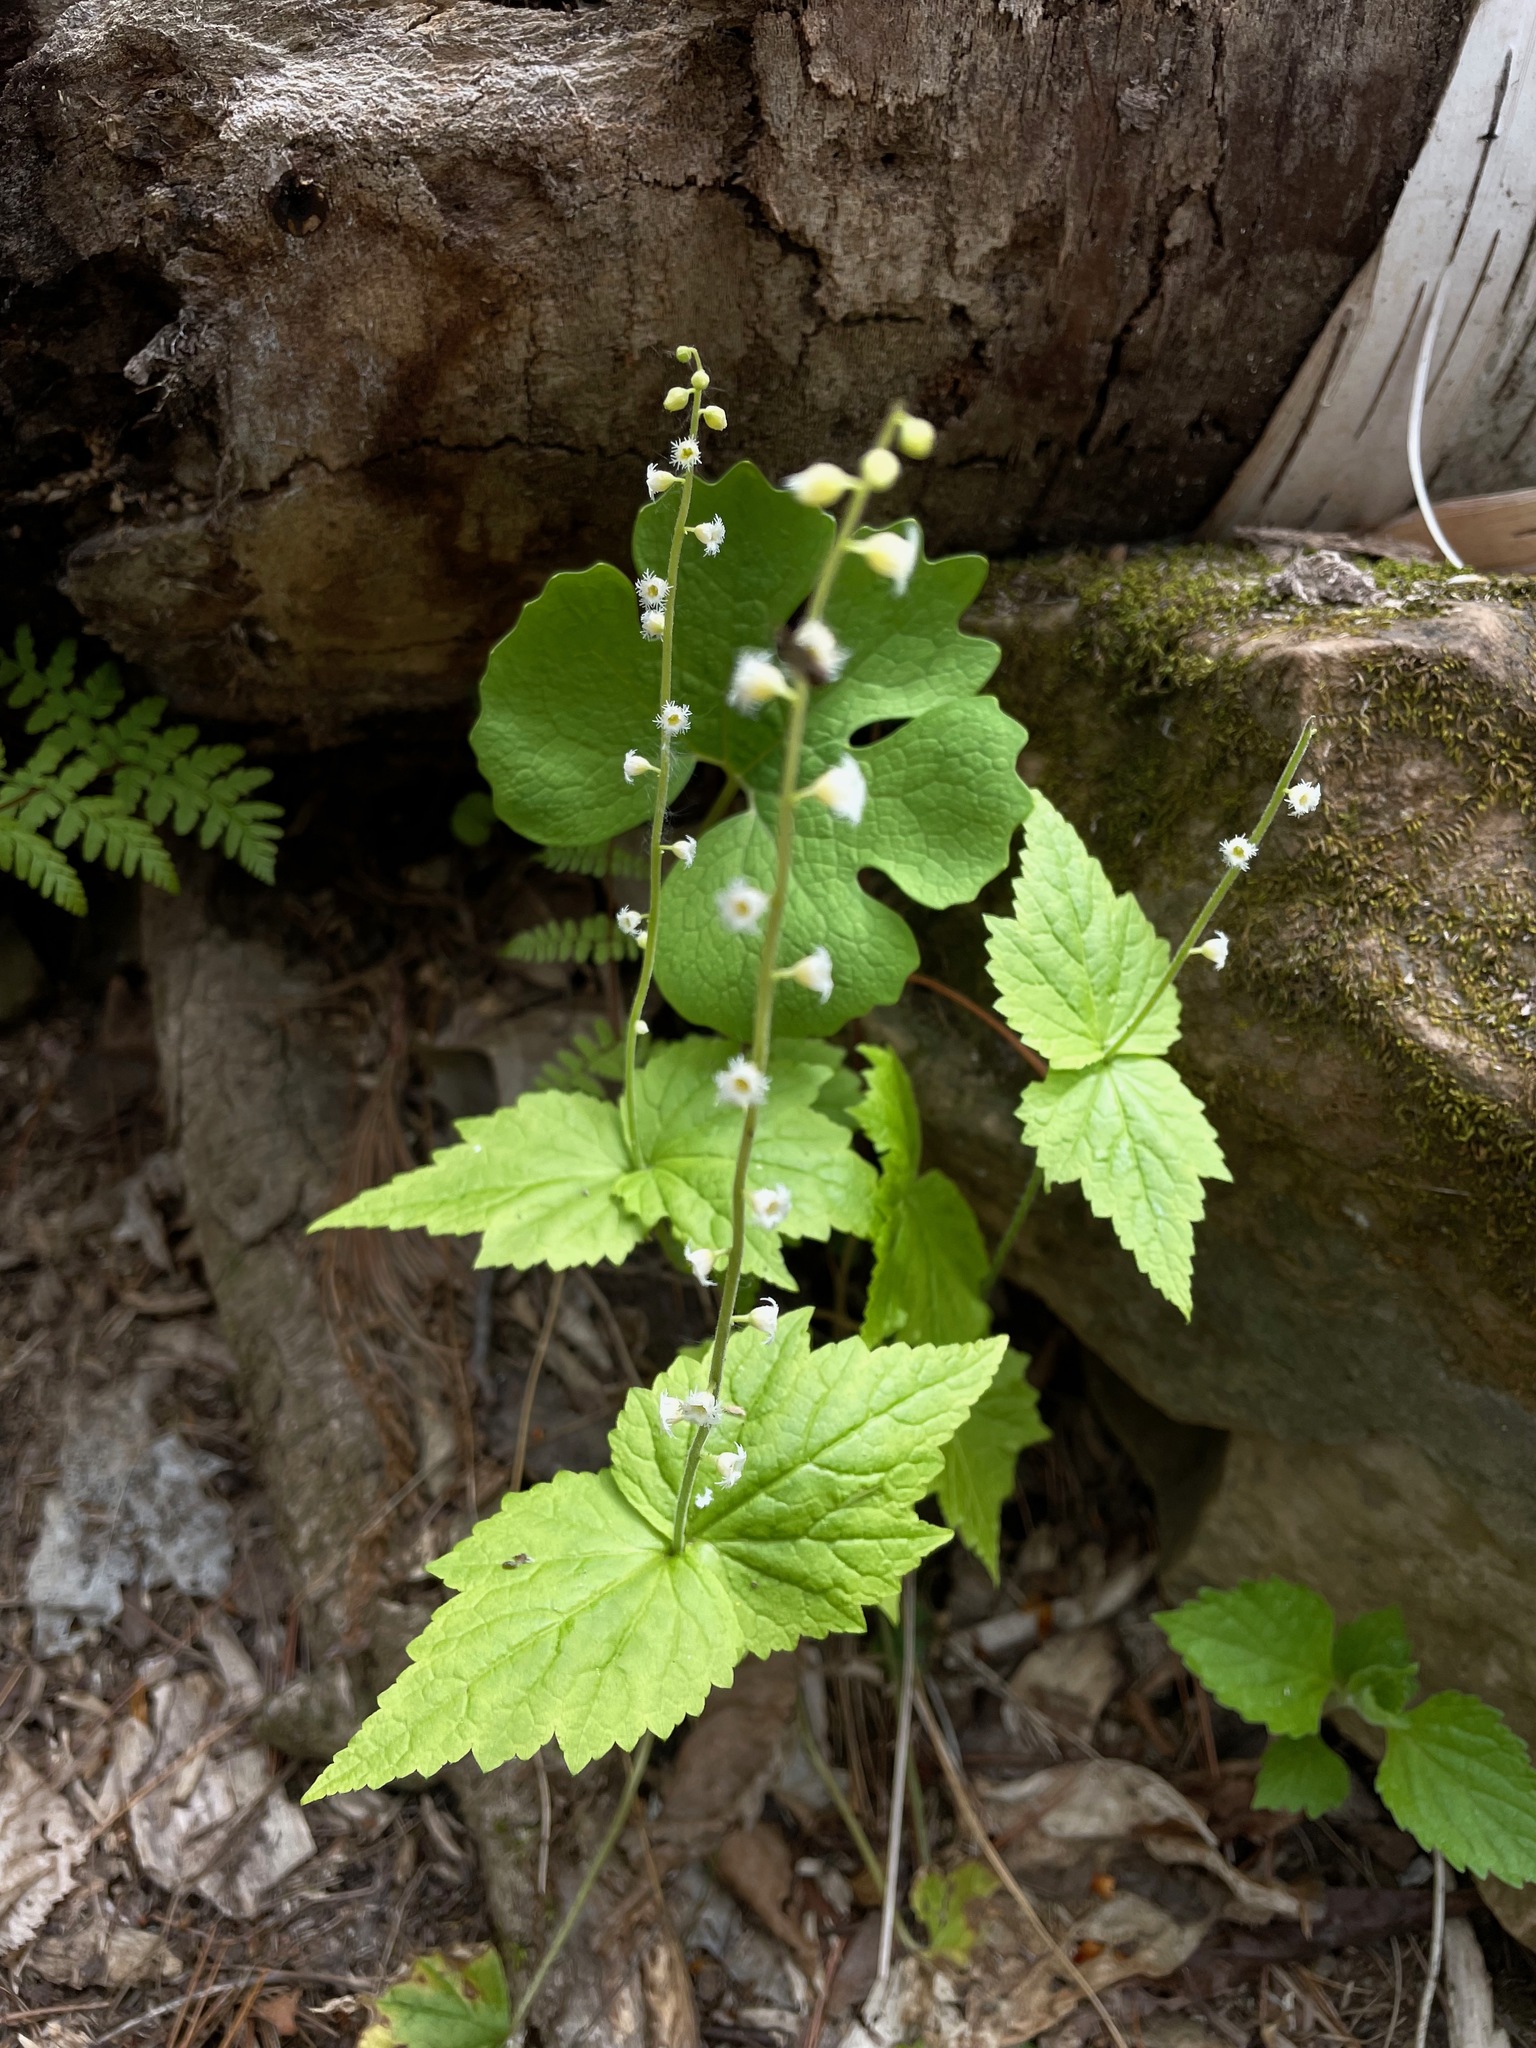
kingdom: Plantae
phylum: Tracheophyta
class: Magnoliopsida
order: Saxifragales
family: Saxifragaceae
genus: Mitella
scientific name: Mitella diphylla
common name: Coolwort
